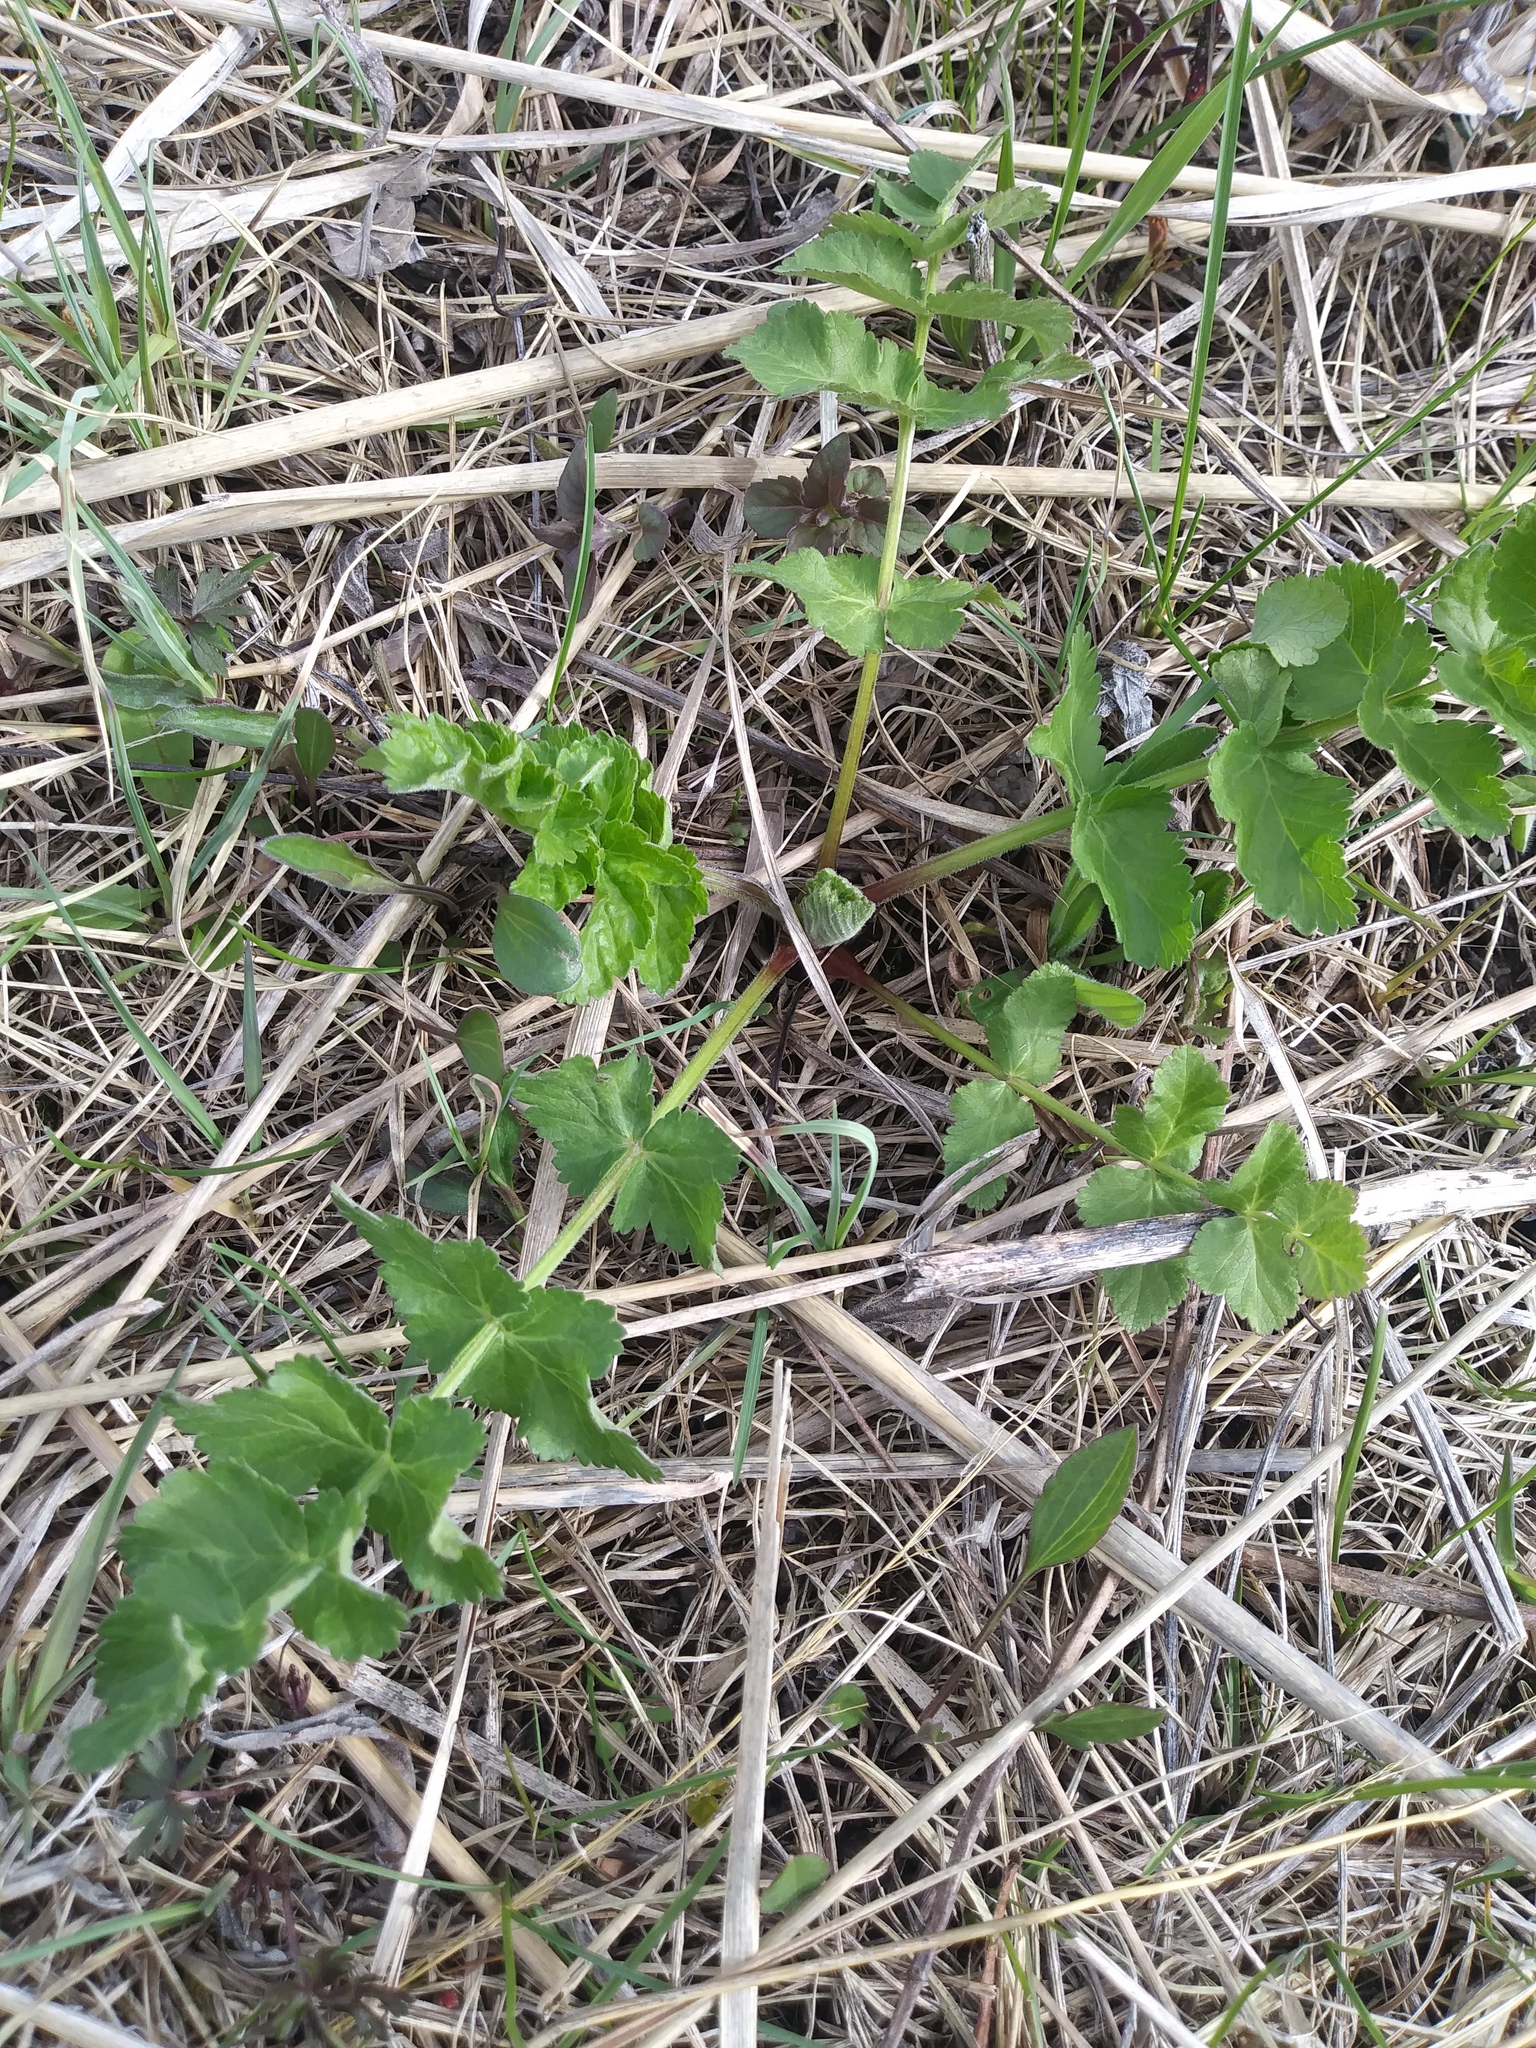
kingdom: Plantae
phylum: Tracheophyta
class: Magnoliopsida
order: Apiales
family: Apiaceae
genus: Pastinaca
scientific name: Pastinaca sativa
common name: Wild parsnip
